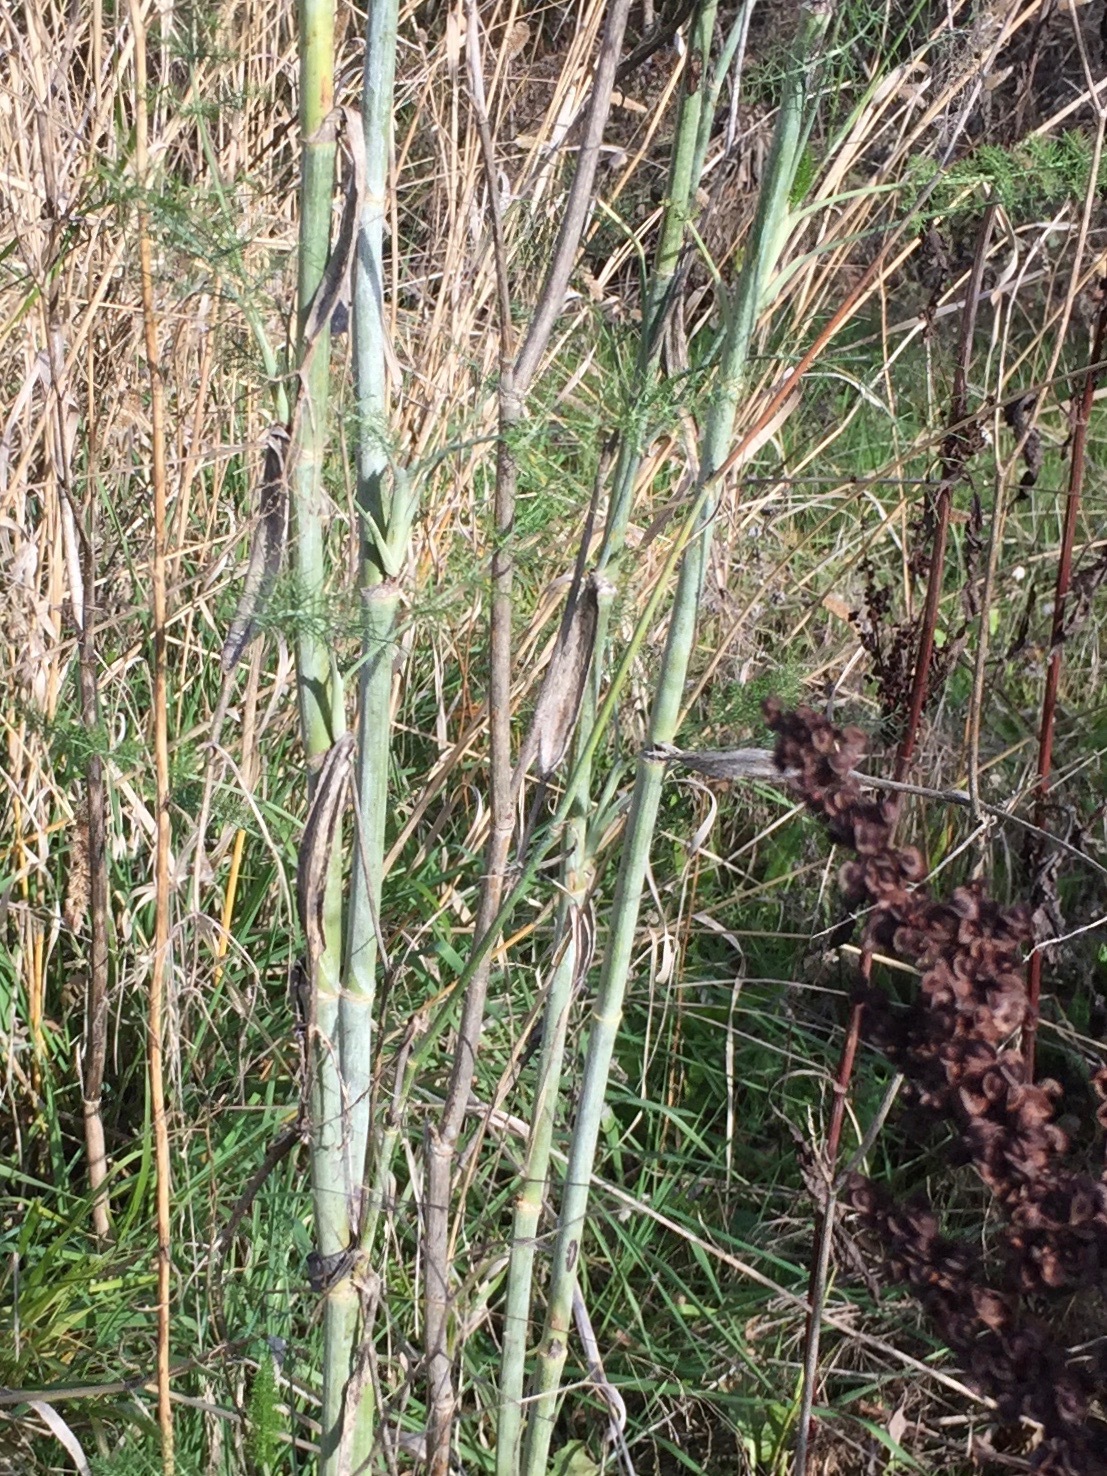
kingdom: Plantae
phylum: Tracheophyta
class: Magnoliopsida
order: Apiales
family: Apiaceae
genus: Foeniculum
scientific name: Foeniculum vulgare
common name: Fennel
